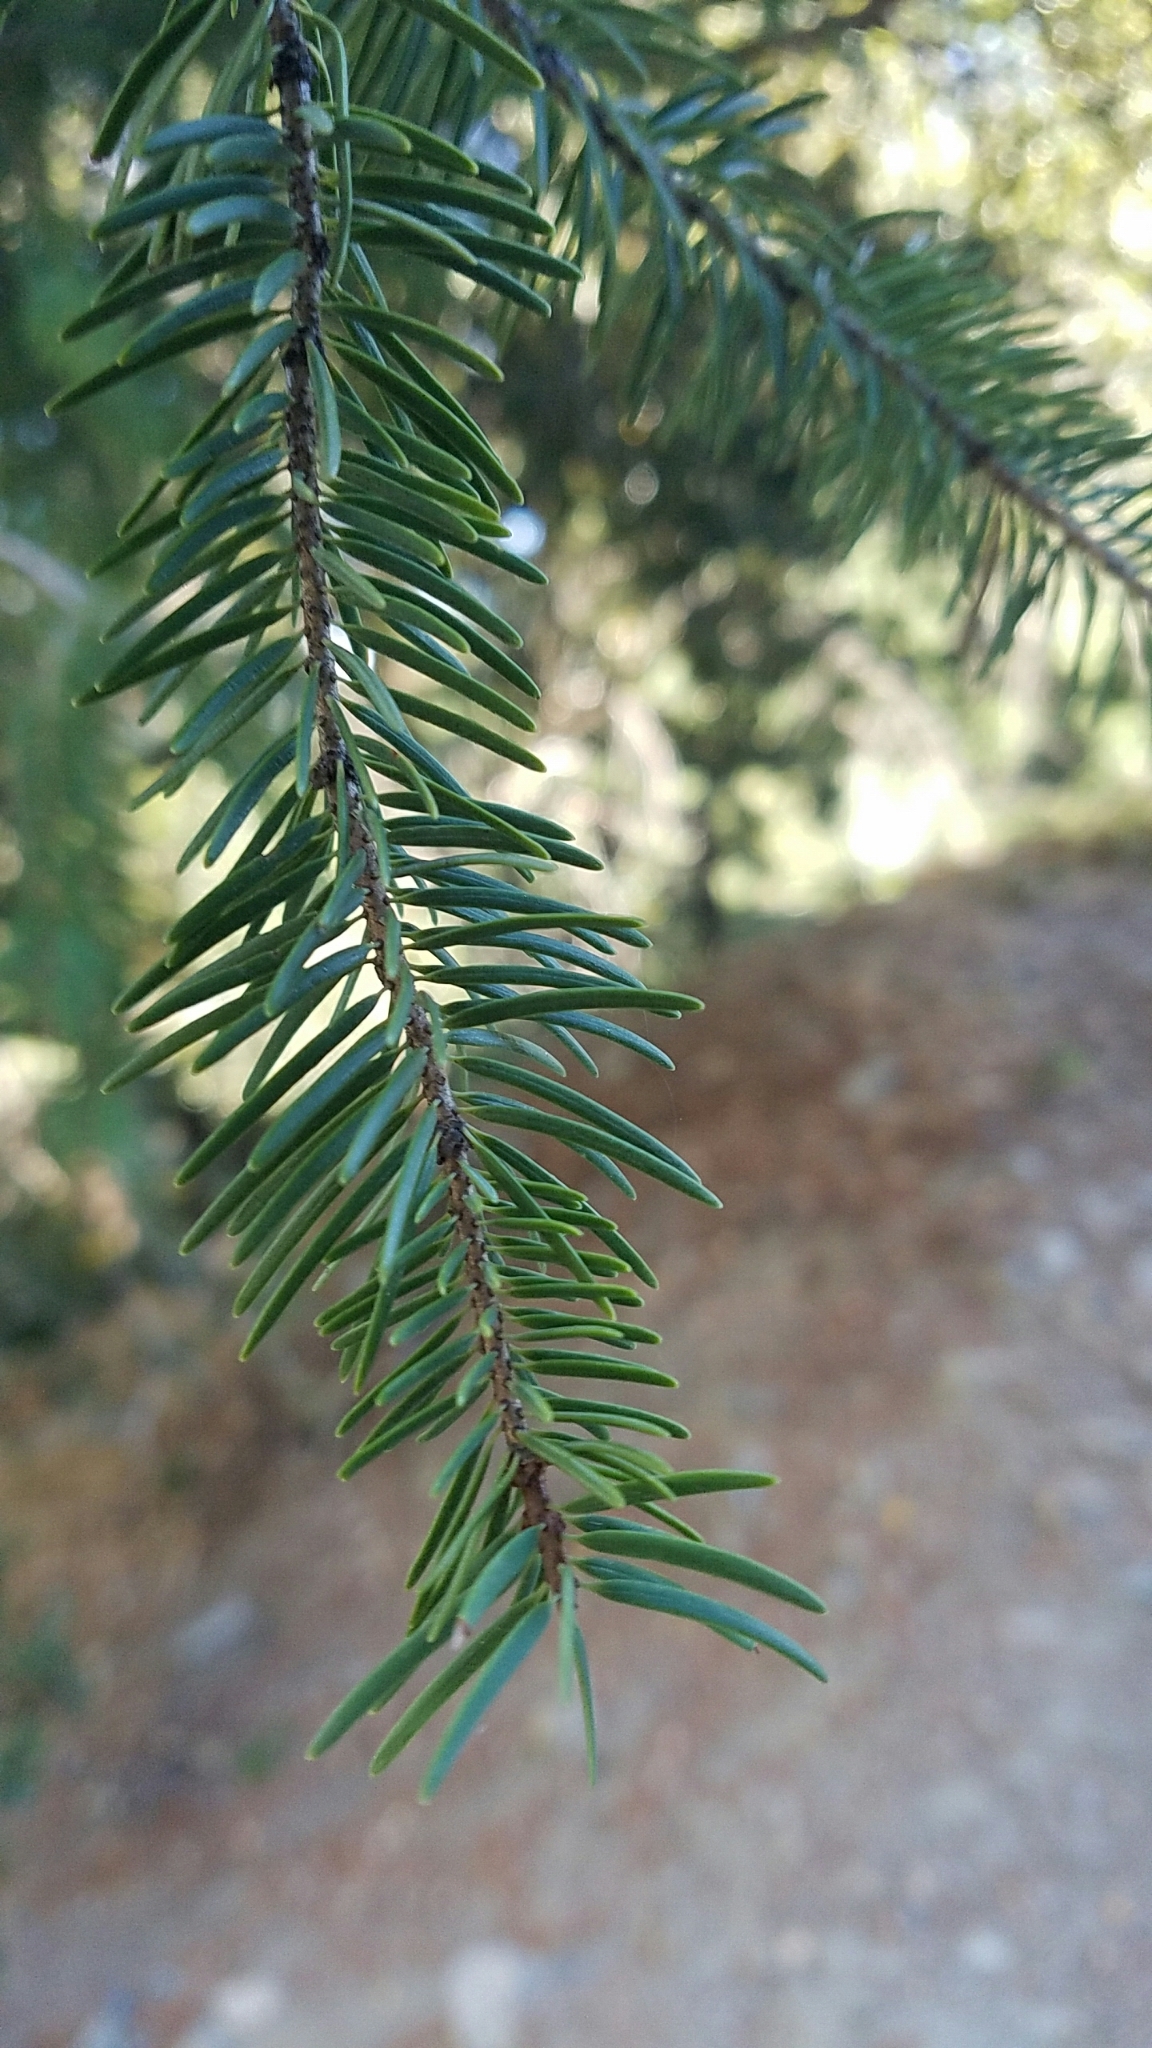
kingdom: Plantae
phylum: Tracheophyta
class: Pinopsida
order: Pinales
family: Pinaceae
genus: Pseudotsuga
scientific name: Pseudotsuga macrocarpa
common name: Big-cone douglas-fir
